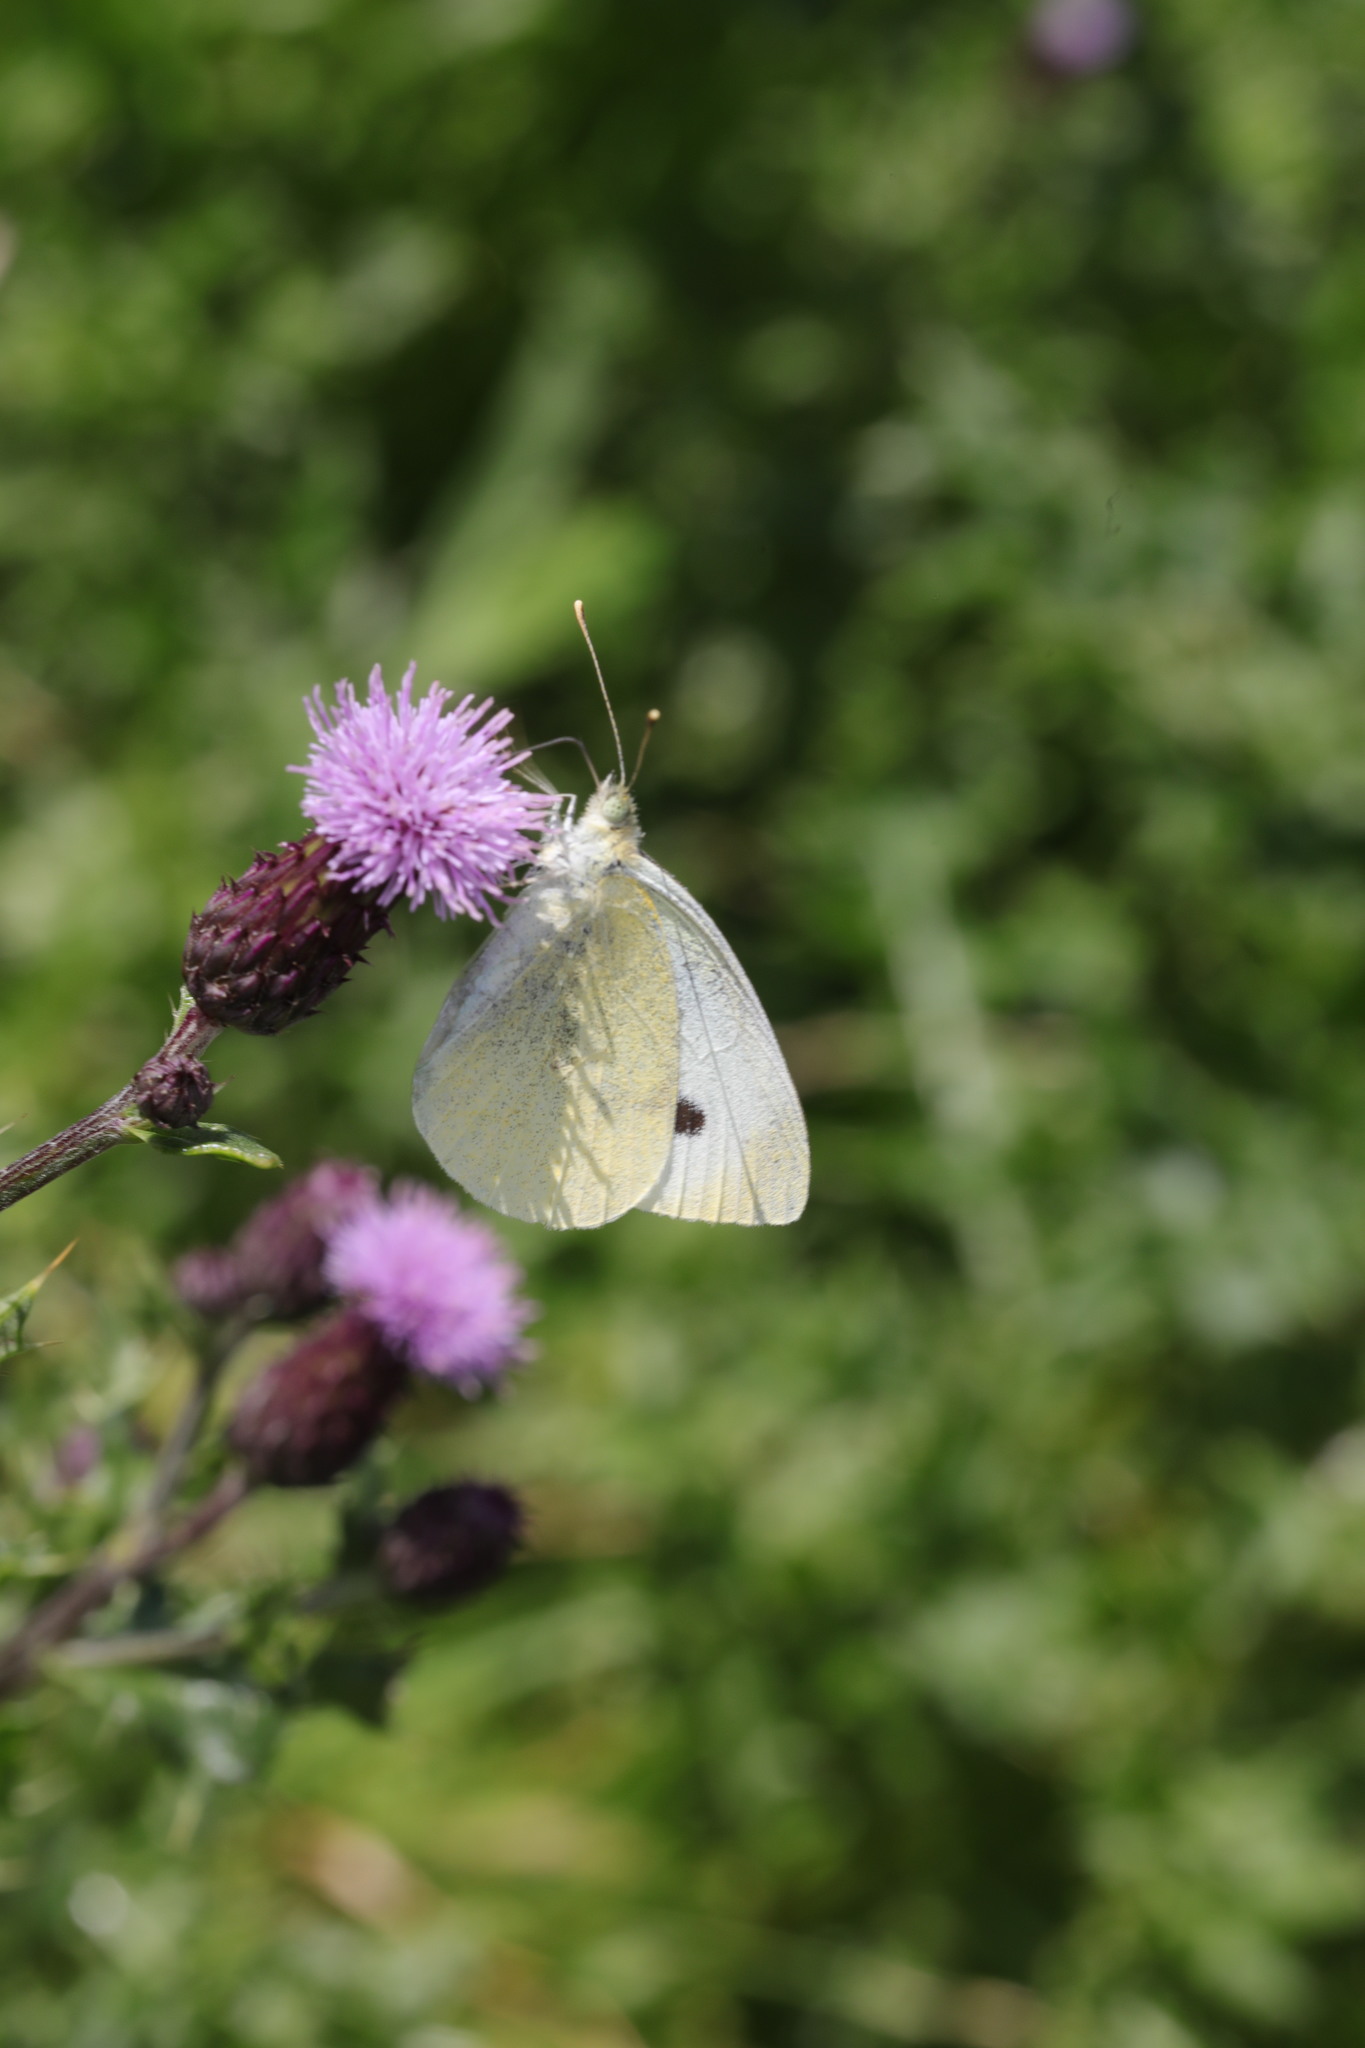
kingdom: Animalia
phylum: Arthropoda
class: Insecta
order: Lepidoptera
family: Pieridae
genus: Pieris
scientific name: Pieris brassicae
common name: Large white
